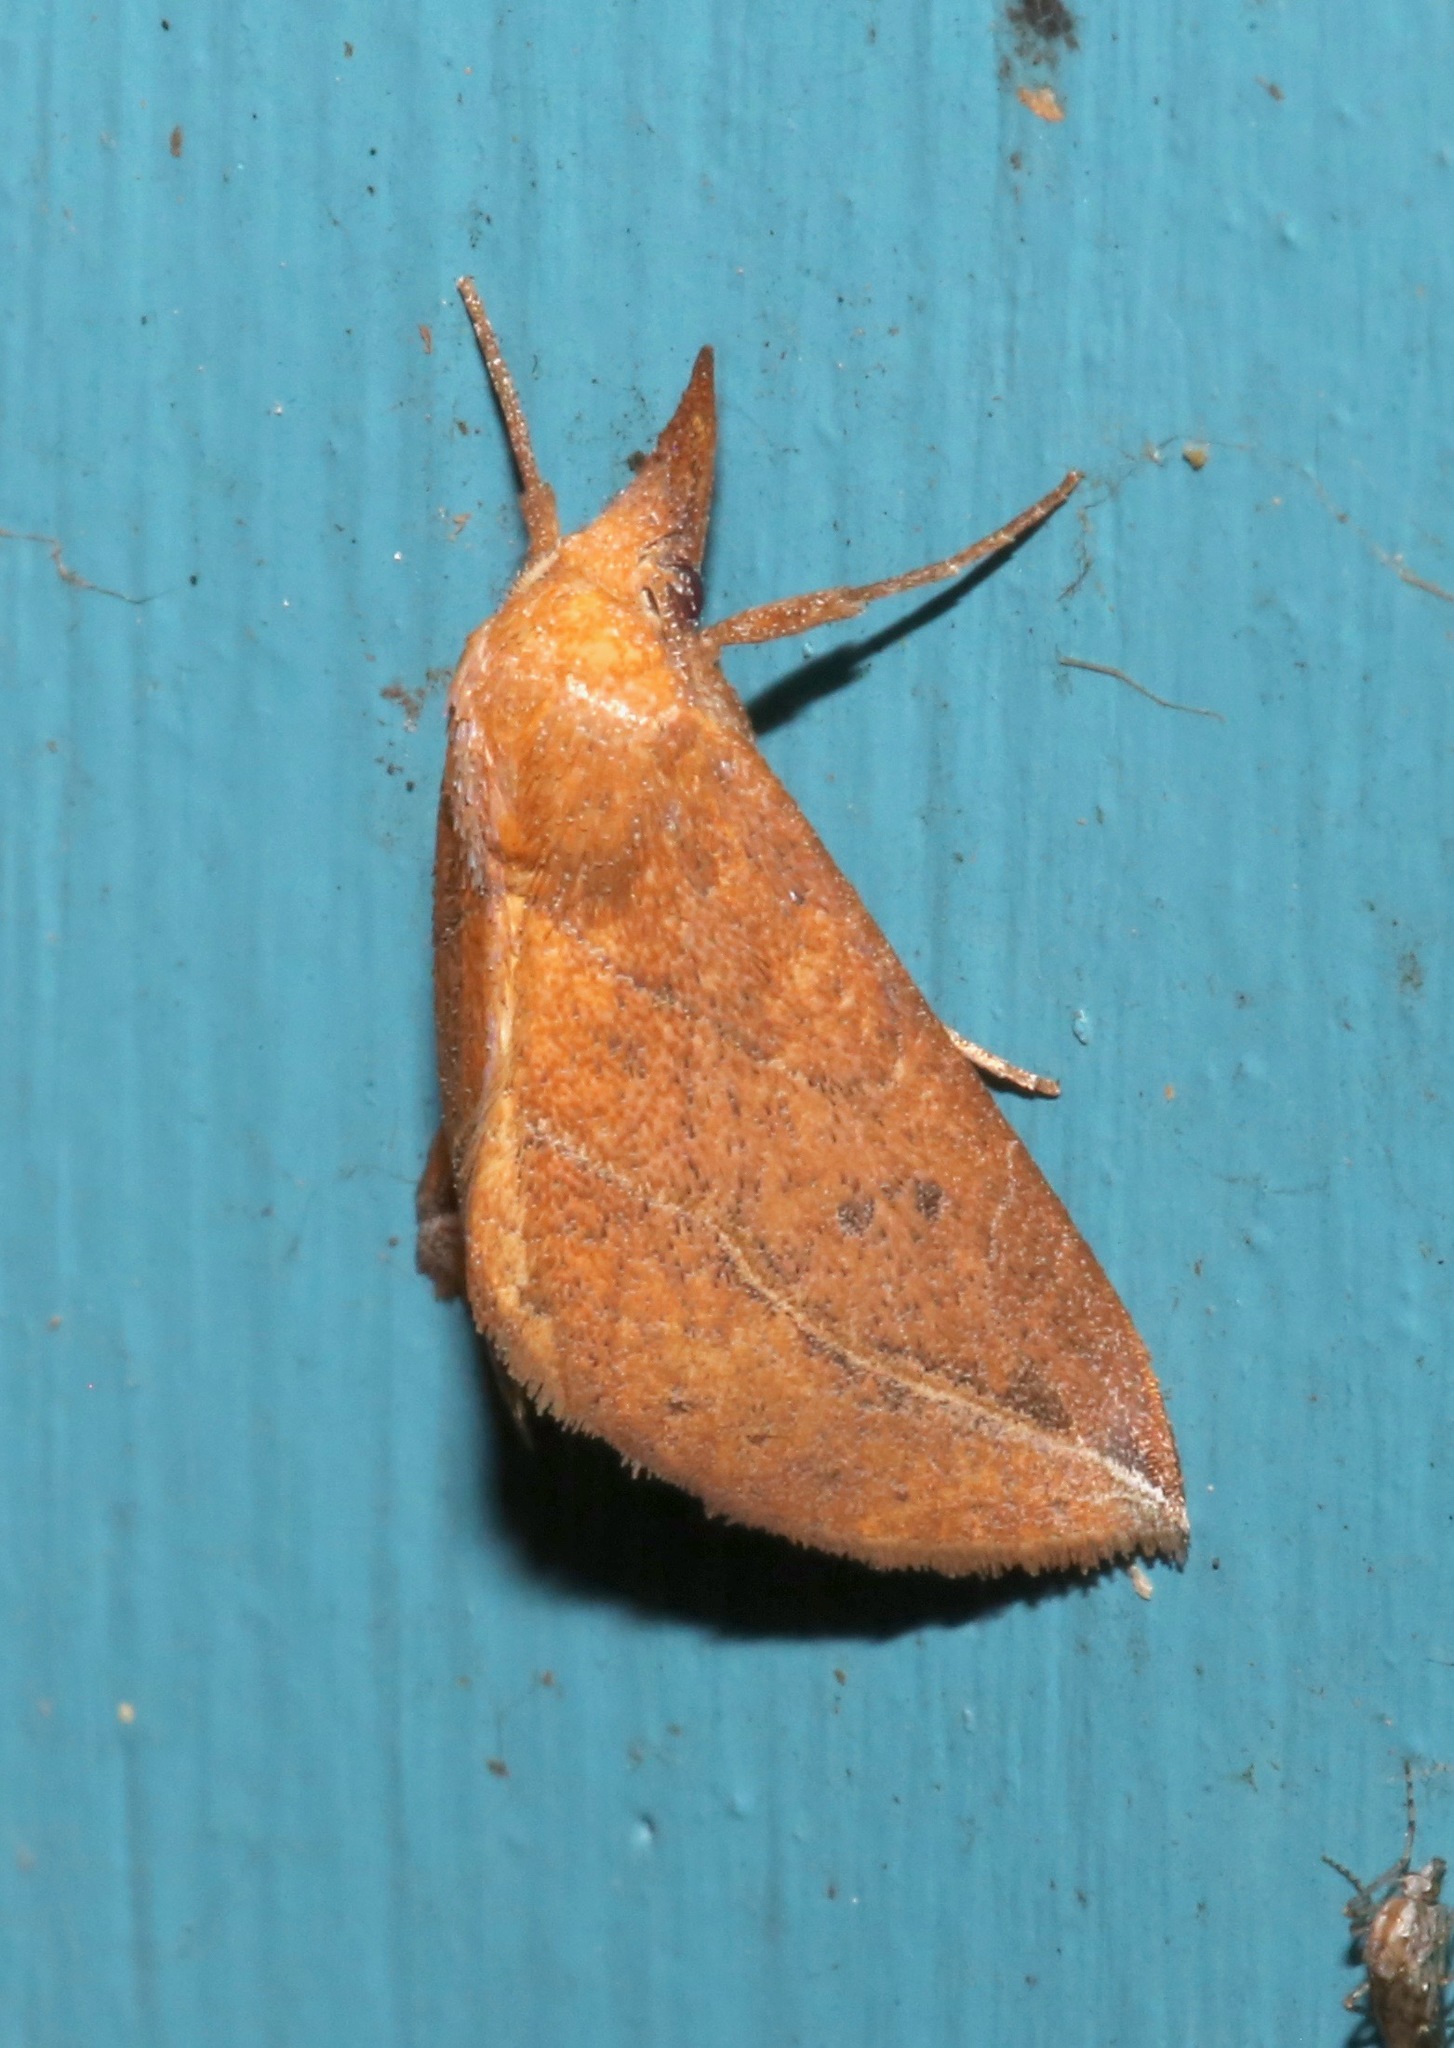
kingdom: Animalia
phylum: Arthropoda
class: Insecta
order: Lepidoptera
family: Erebidae
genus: Phyprosopus
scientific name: Phyprosopus callitrichoides
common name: Curved-lined owlet
